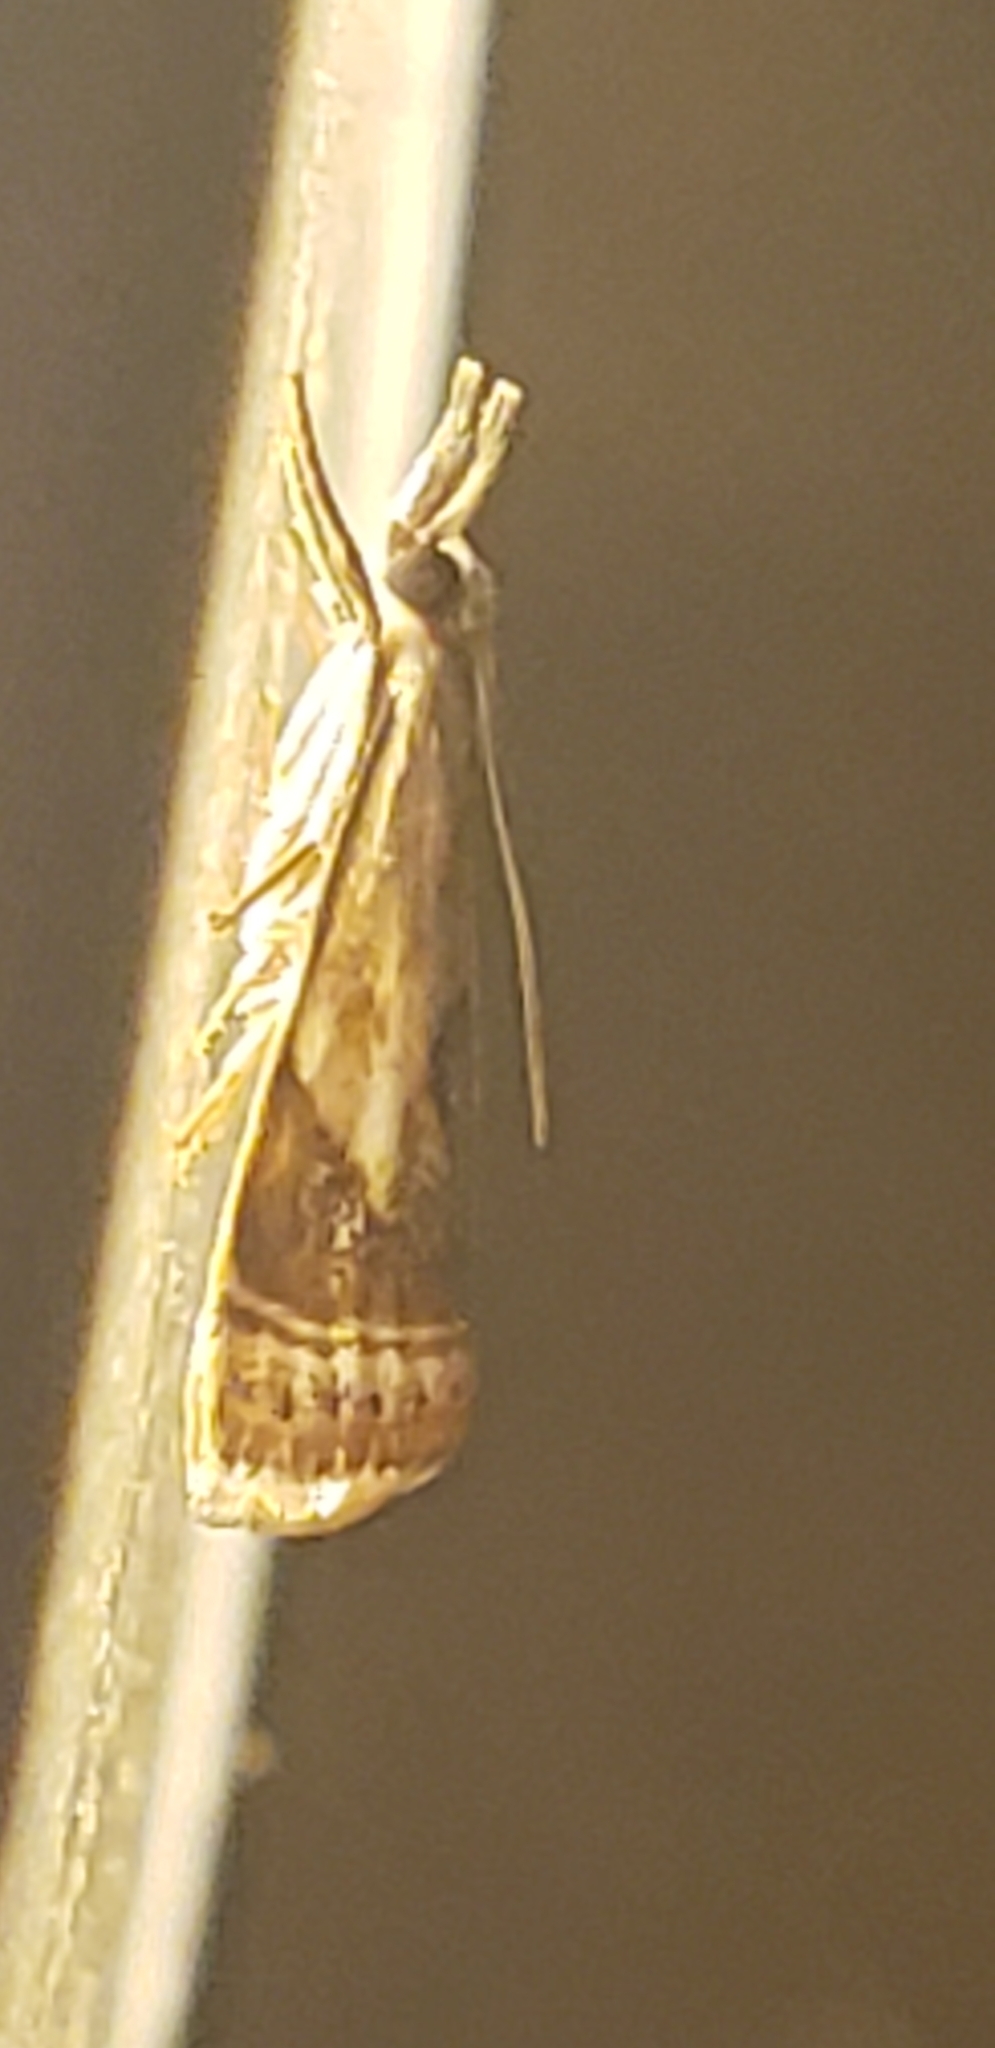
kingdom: Animalia
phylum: Arthropoda
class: Insecta
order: Lepidoptera
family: Crambidae
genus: Microcrambus
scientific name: Microcrambus elegans
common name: Elegant grass-veneer
